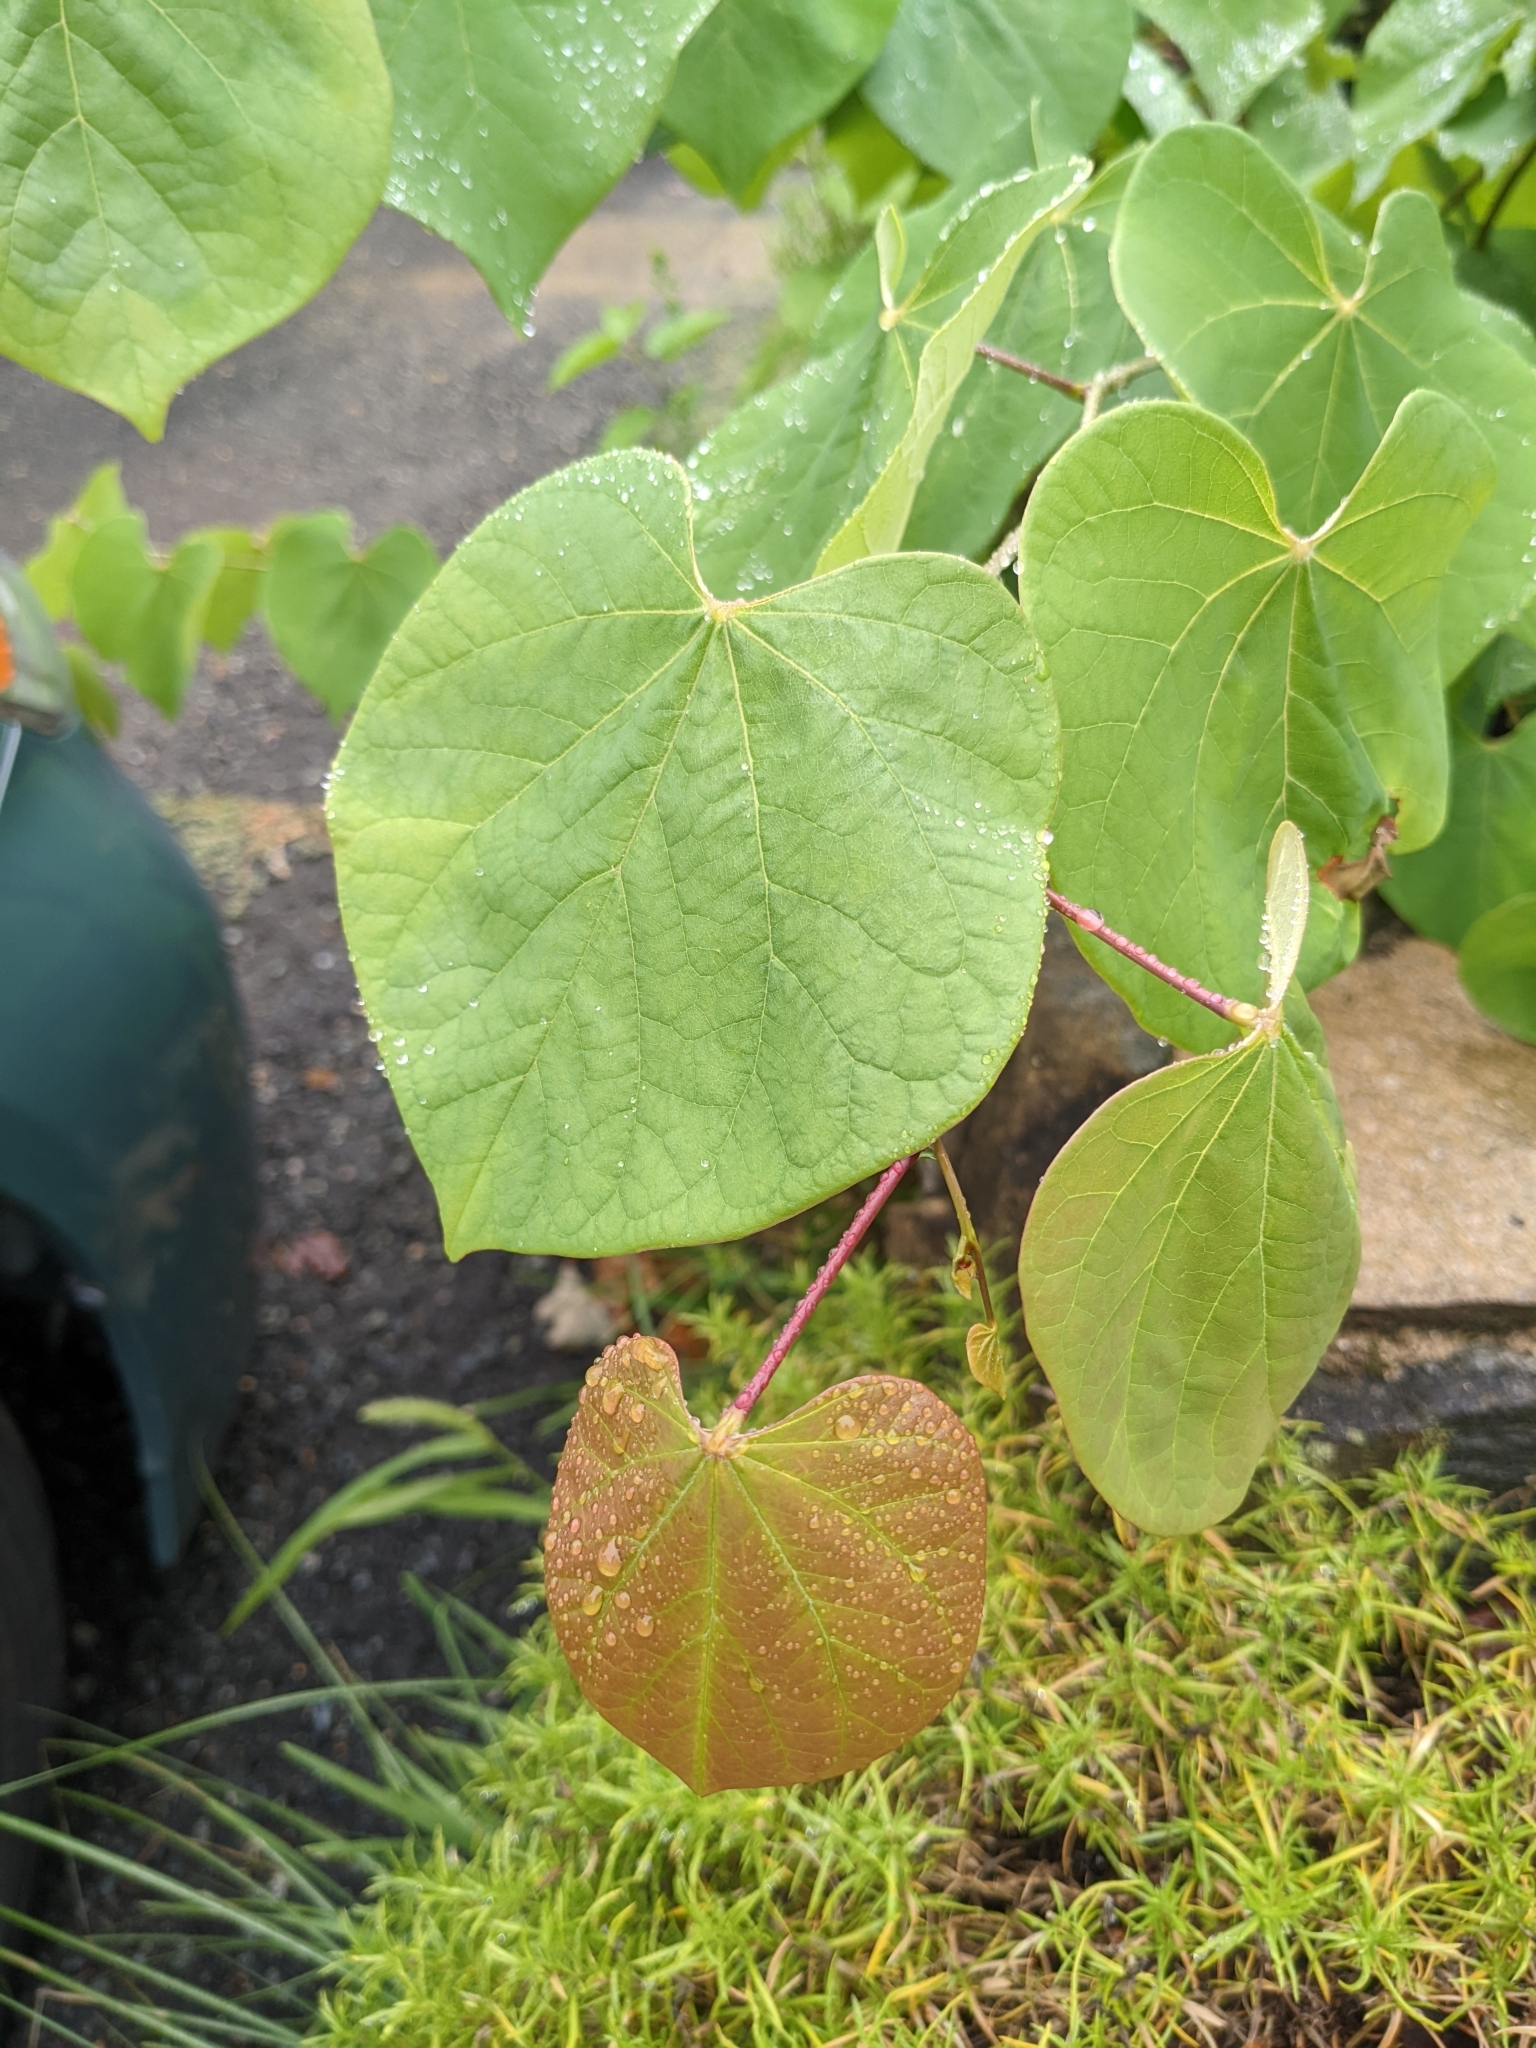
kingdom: Plantae
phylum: Tracheophyta
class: Magnoliopsida
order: Fabales
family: Fabaceae
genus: Cercis
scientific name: Cercis canadensis
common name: Eastern redbud
